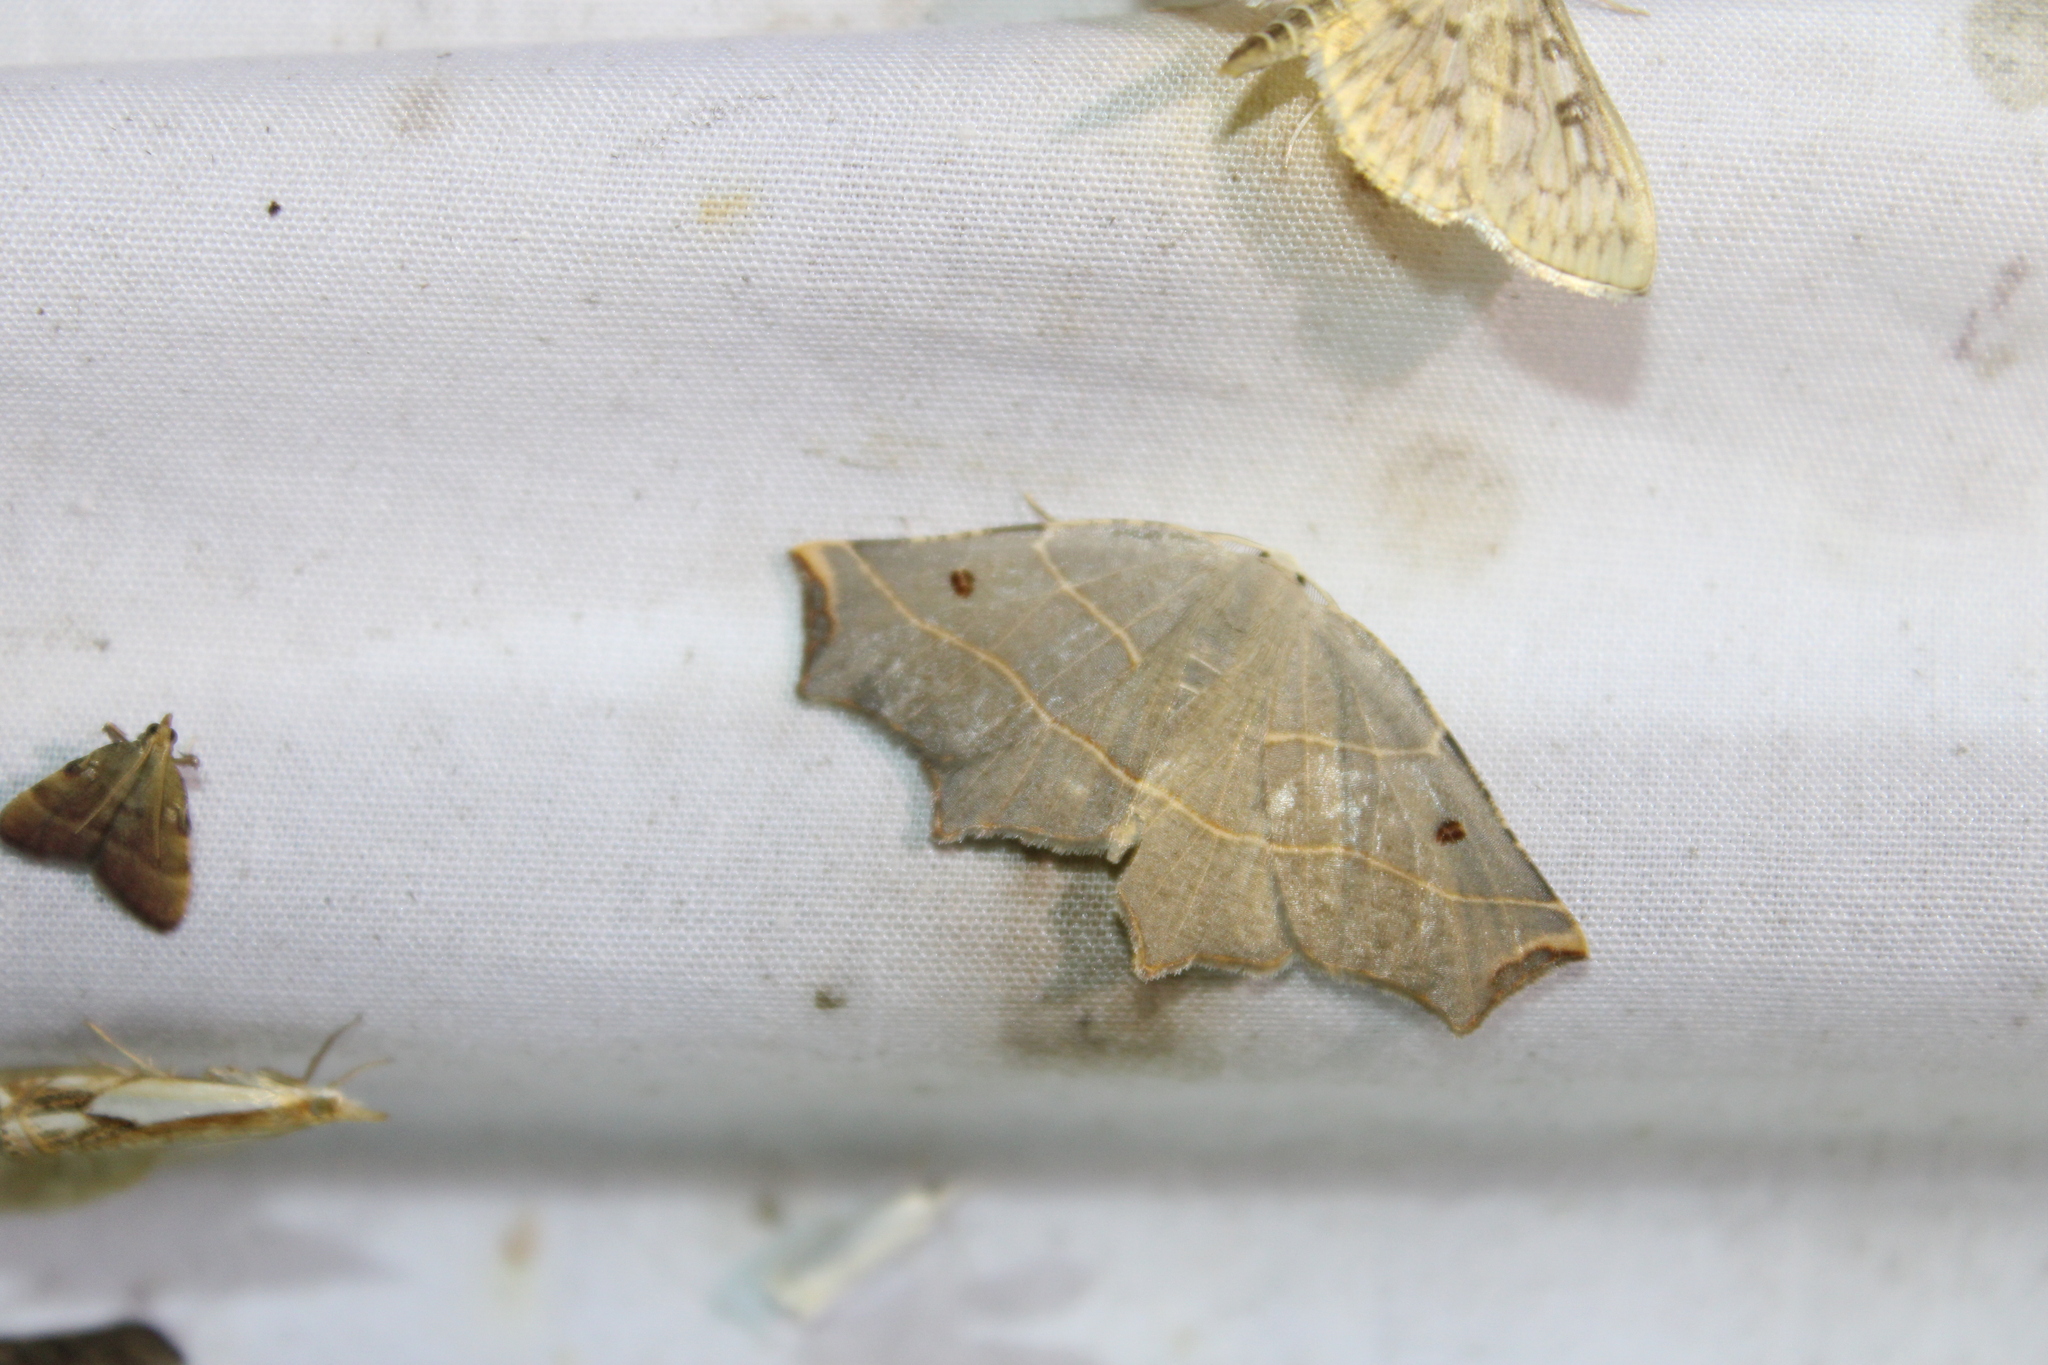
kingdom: Animalia
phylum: Arthropoda
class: Insecta
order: Lepidoptera
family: Geometridae
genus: Metanema
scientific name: Metanema inatomaria
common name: Pale metanema
